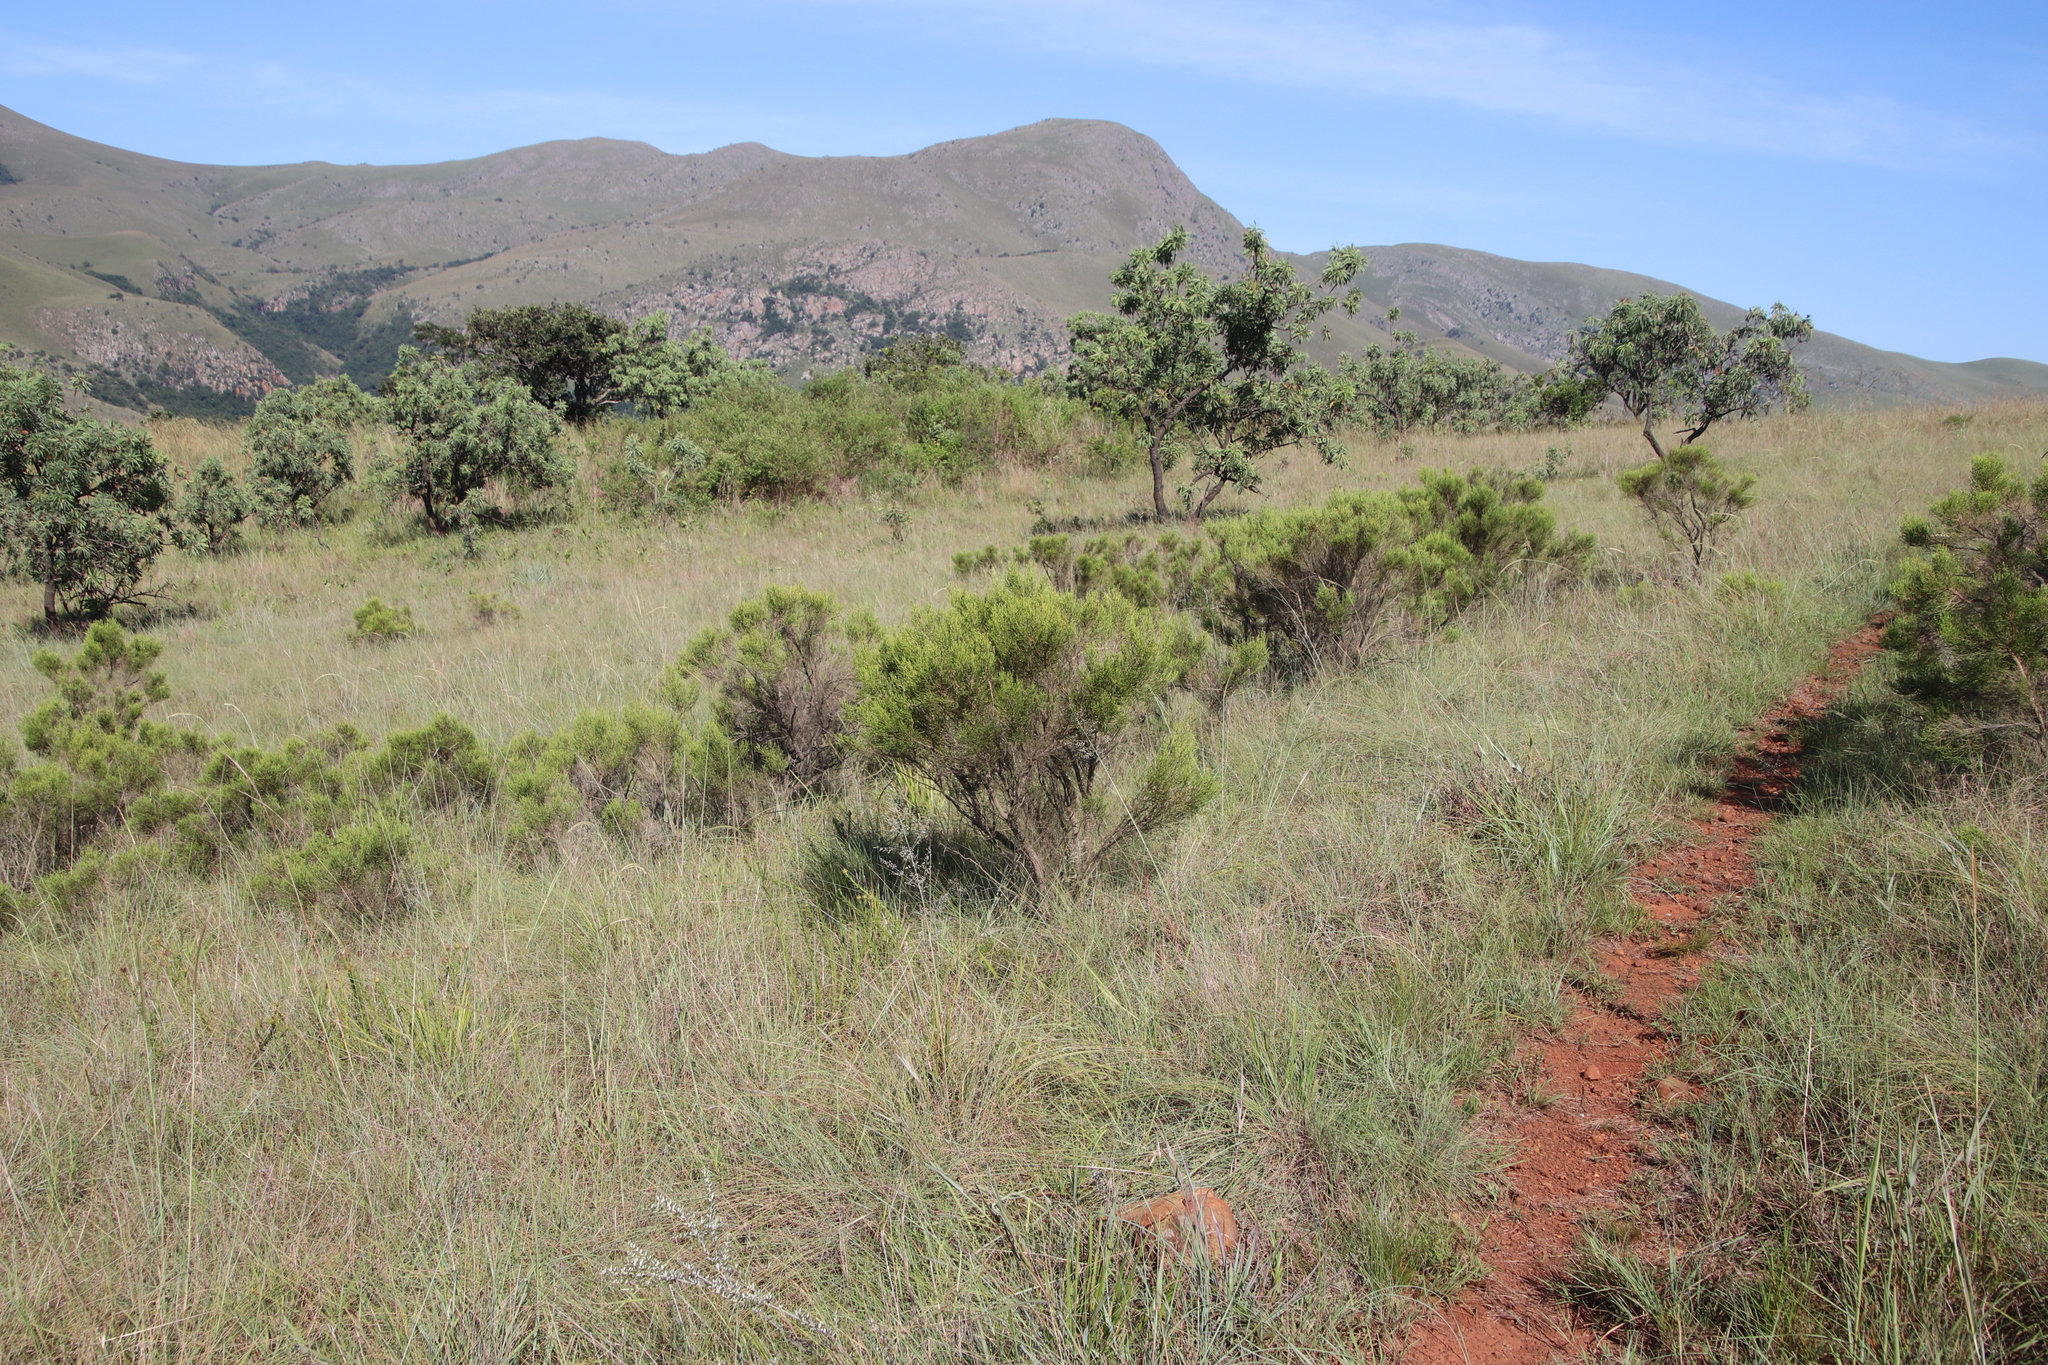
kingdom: Plantae
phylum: Tracheophyta
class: Magnoliopsida
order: Ericales
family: Ericaceae
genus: Erica
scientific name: Erica drakensbergensis
